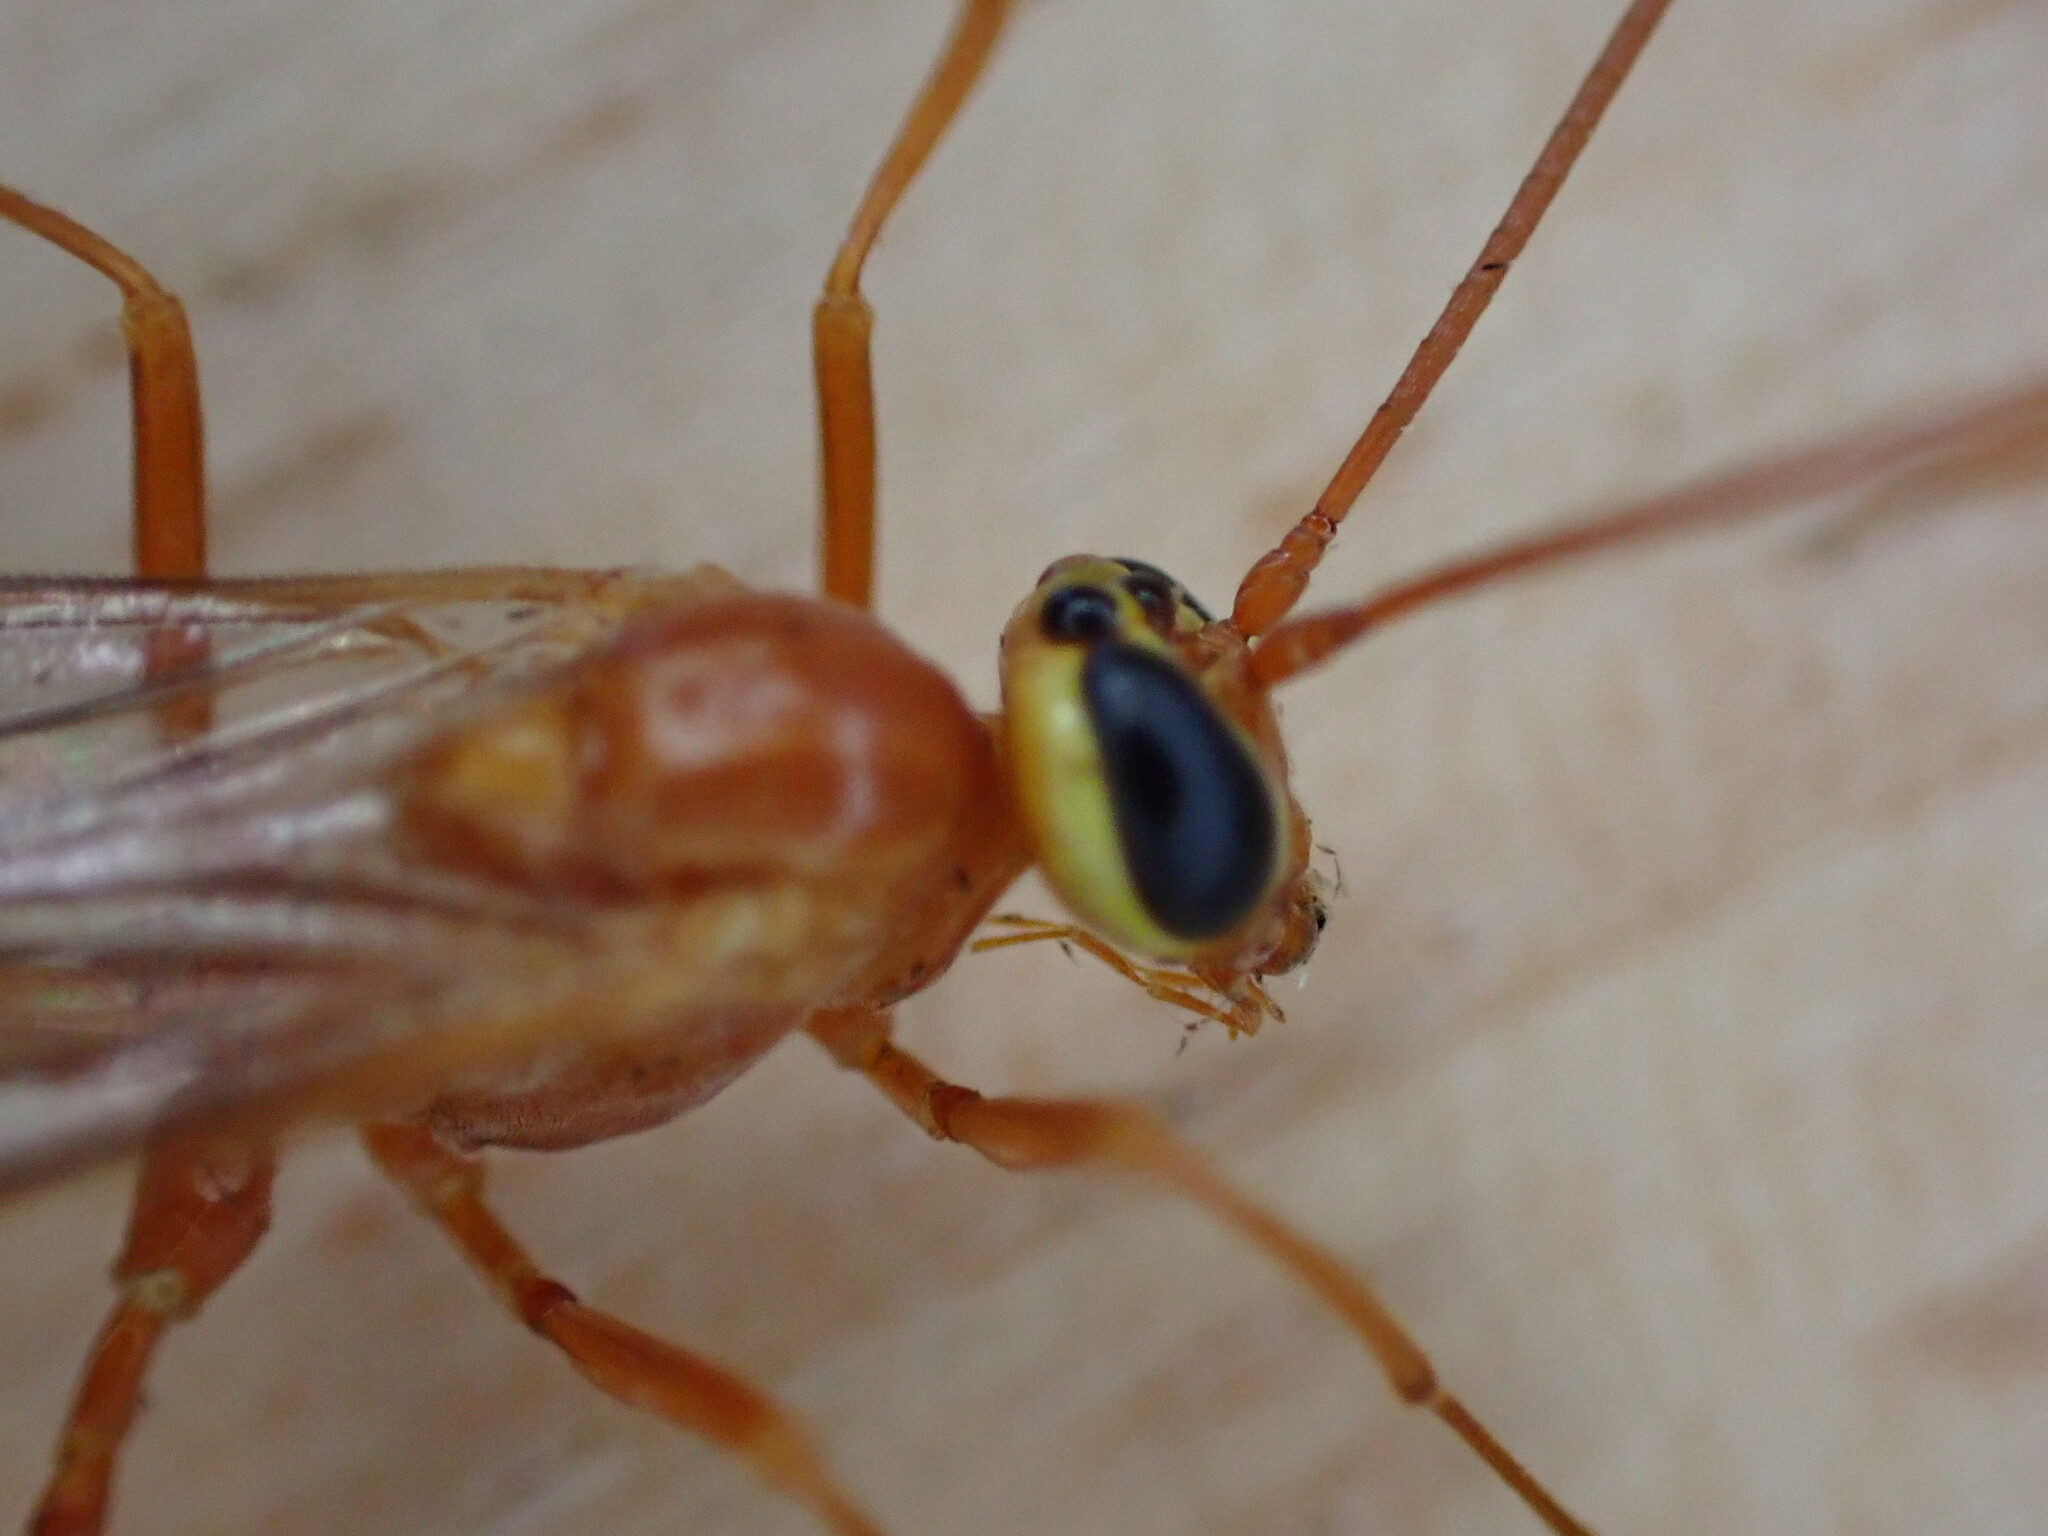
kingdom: Animalia
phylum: Arthropoda
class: Insecta
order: Hymenoptera
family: Ichneumonidae
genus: Ophion
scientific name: Ophion
